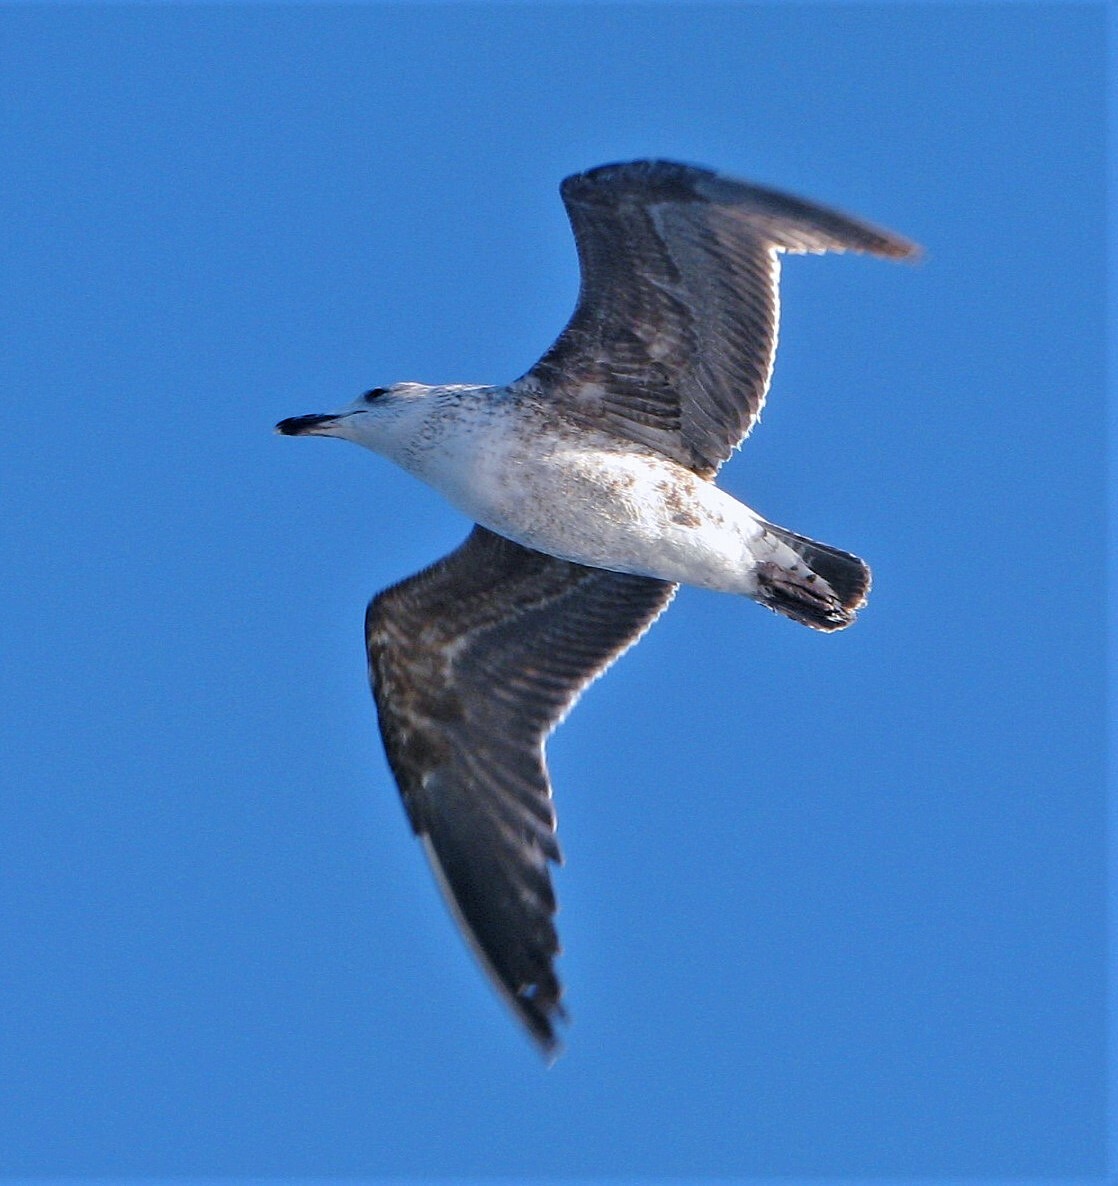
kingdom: Animalia
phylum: Chordata
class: Aves
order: Charadriiformes
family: Laridae
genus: Larus
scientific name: Larus dominicanus
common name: Kelp gull
